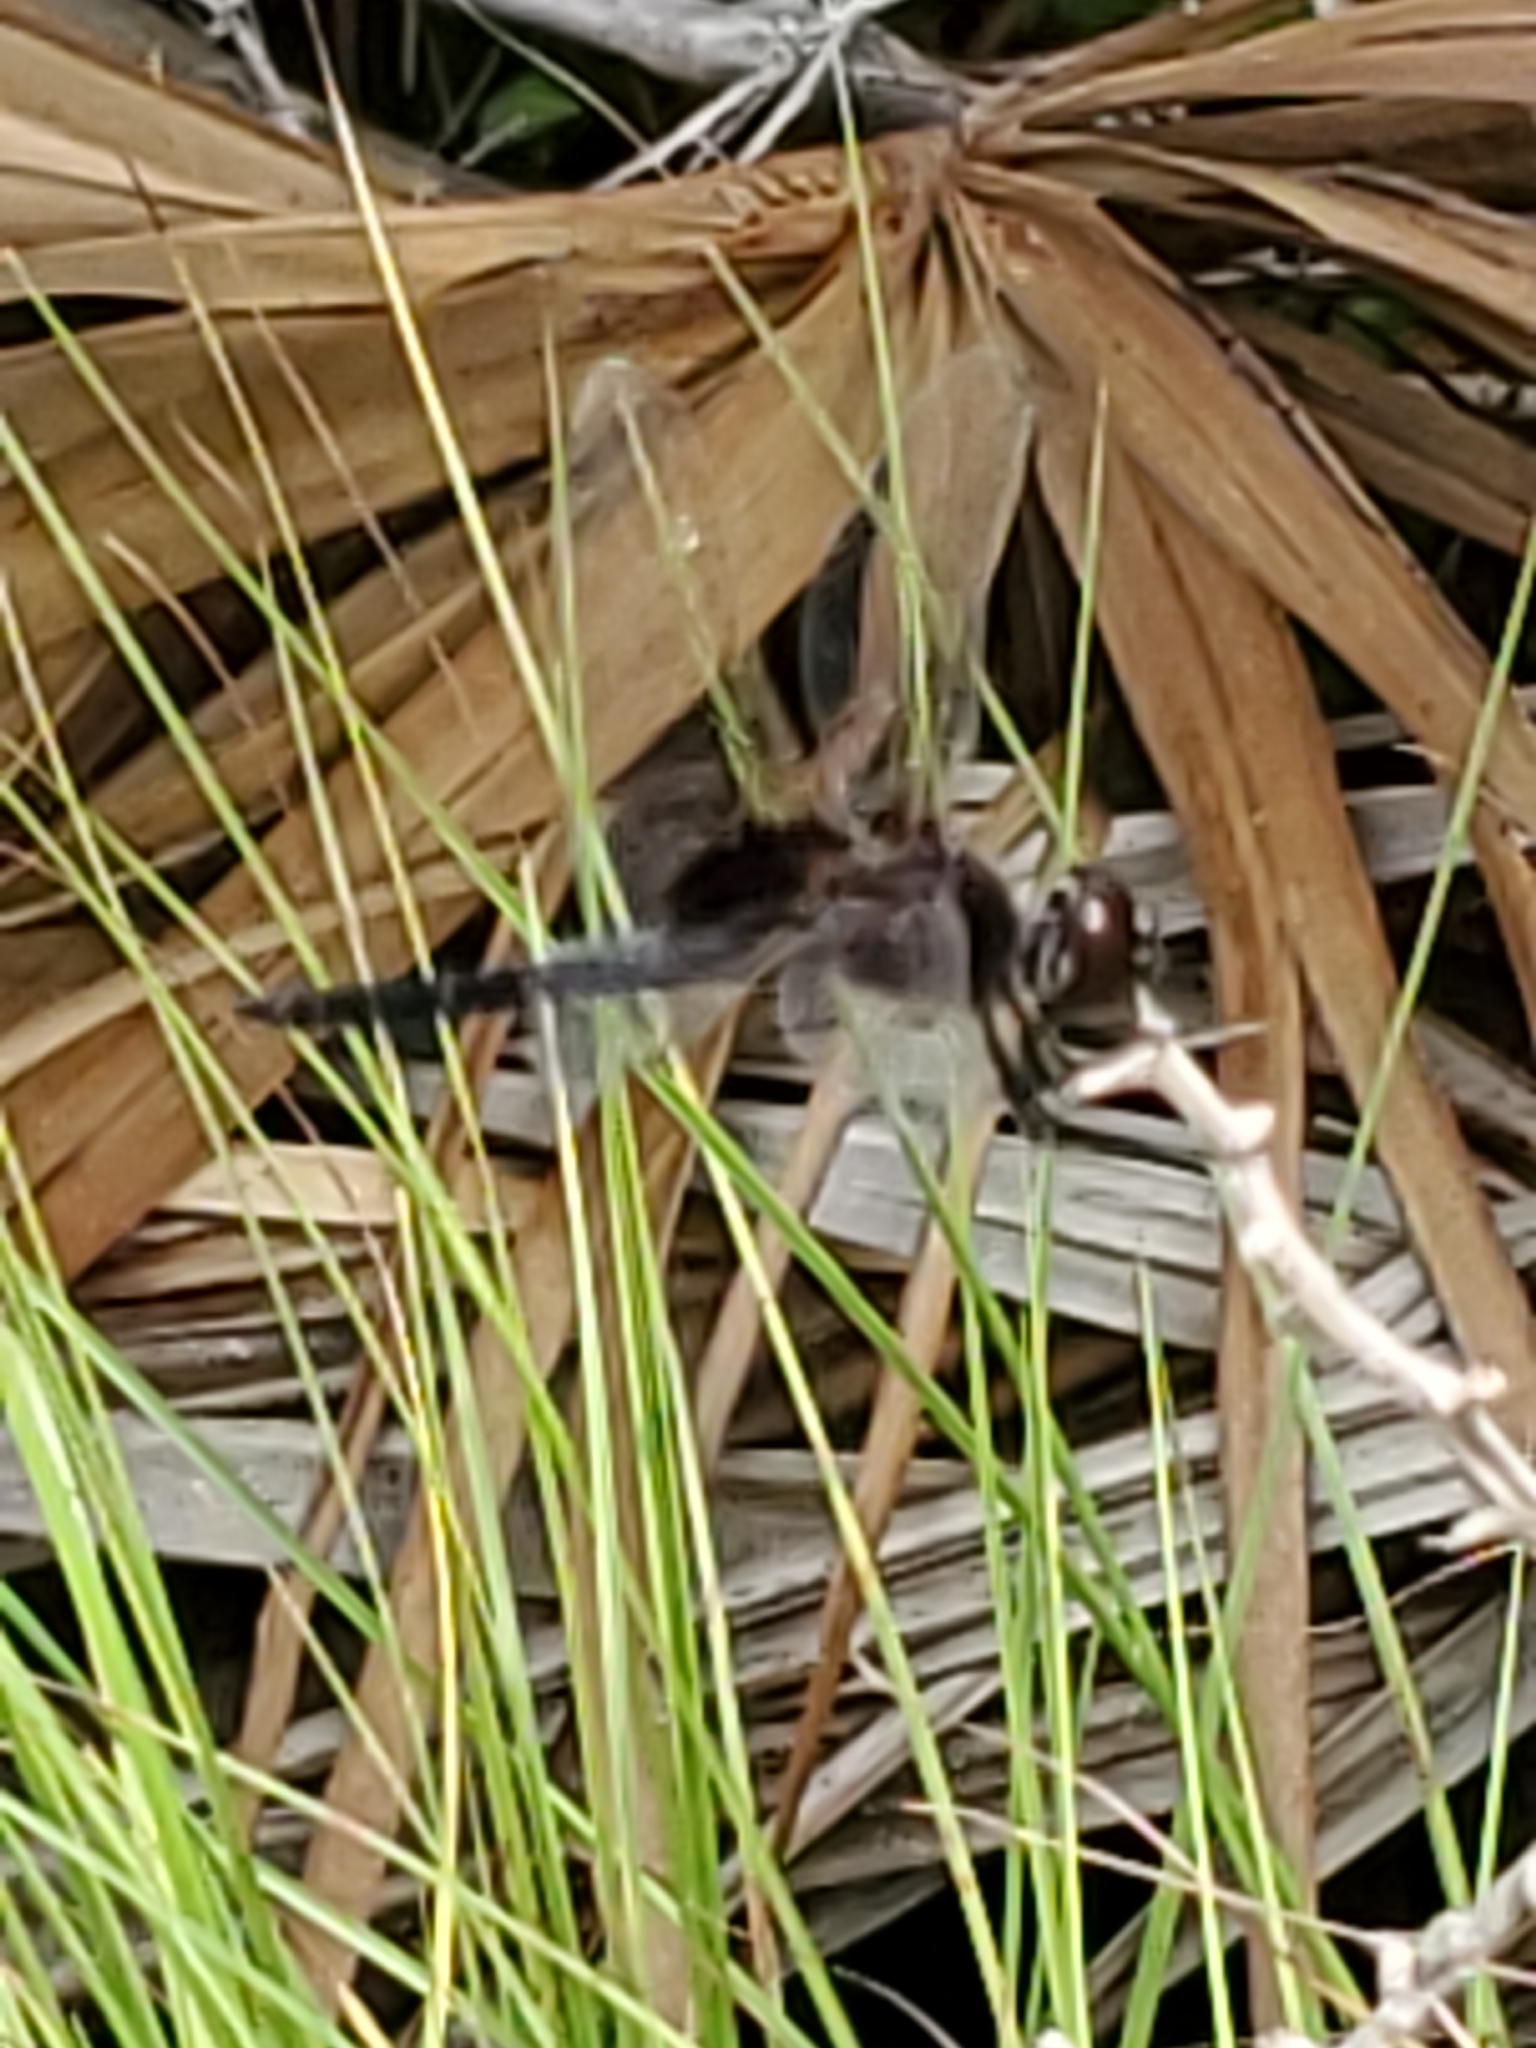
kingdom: Animalia
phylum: Arthropoda
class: Insecta
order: Odonata
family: Libellulidae
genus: Macrodiplax
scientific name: Macrodiplax balteata
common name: Marl pennant
